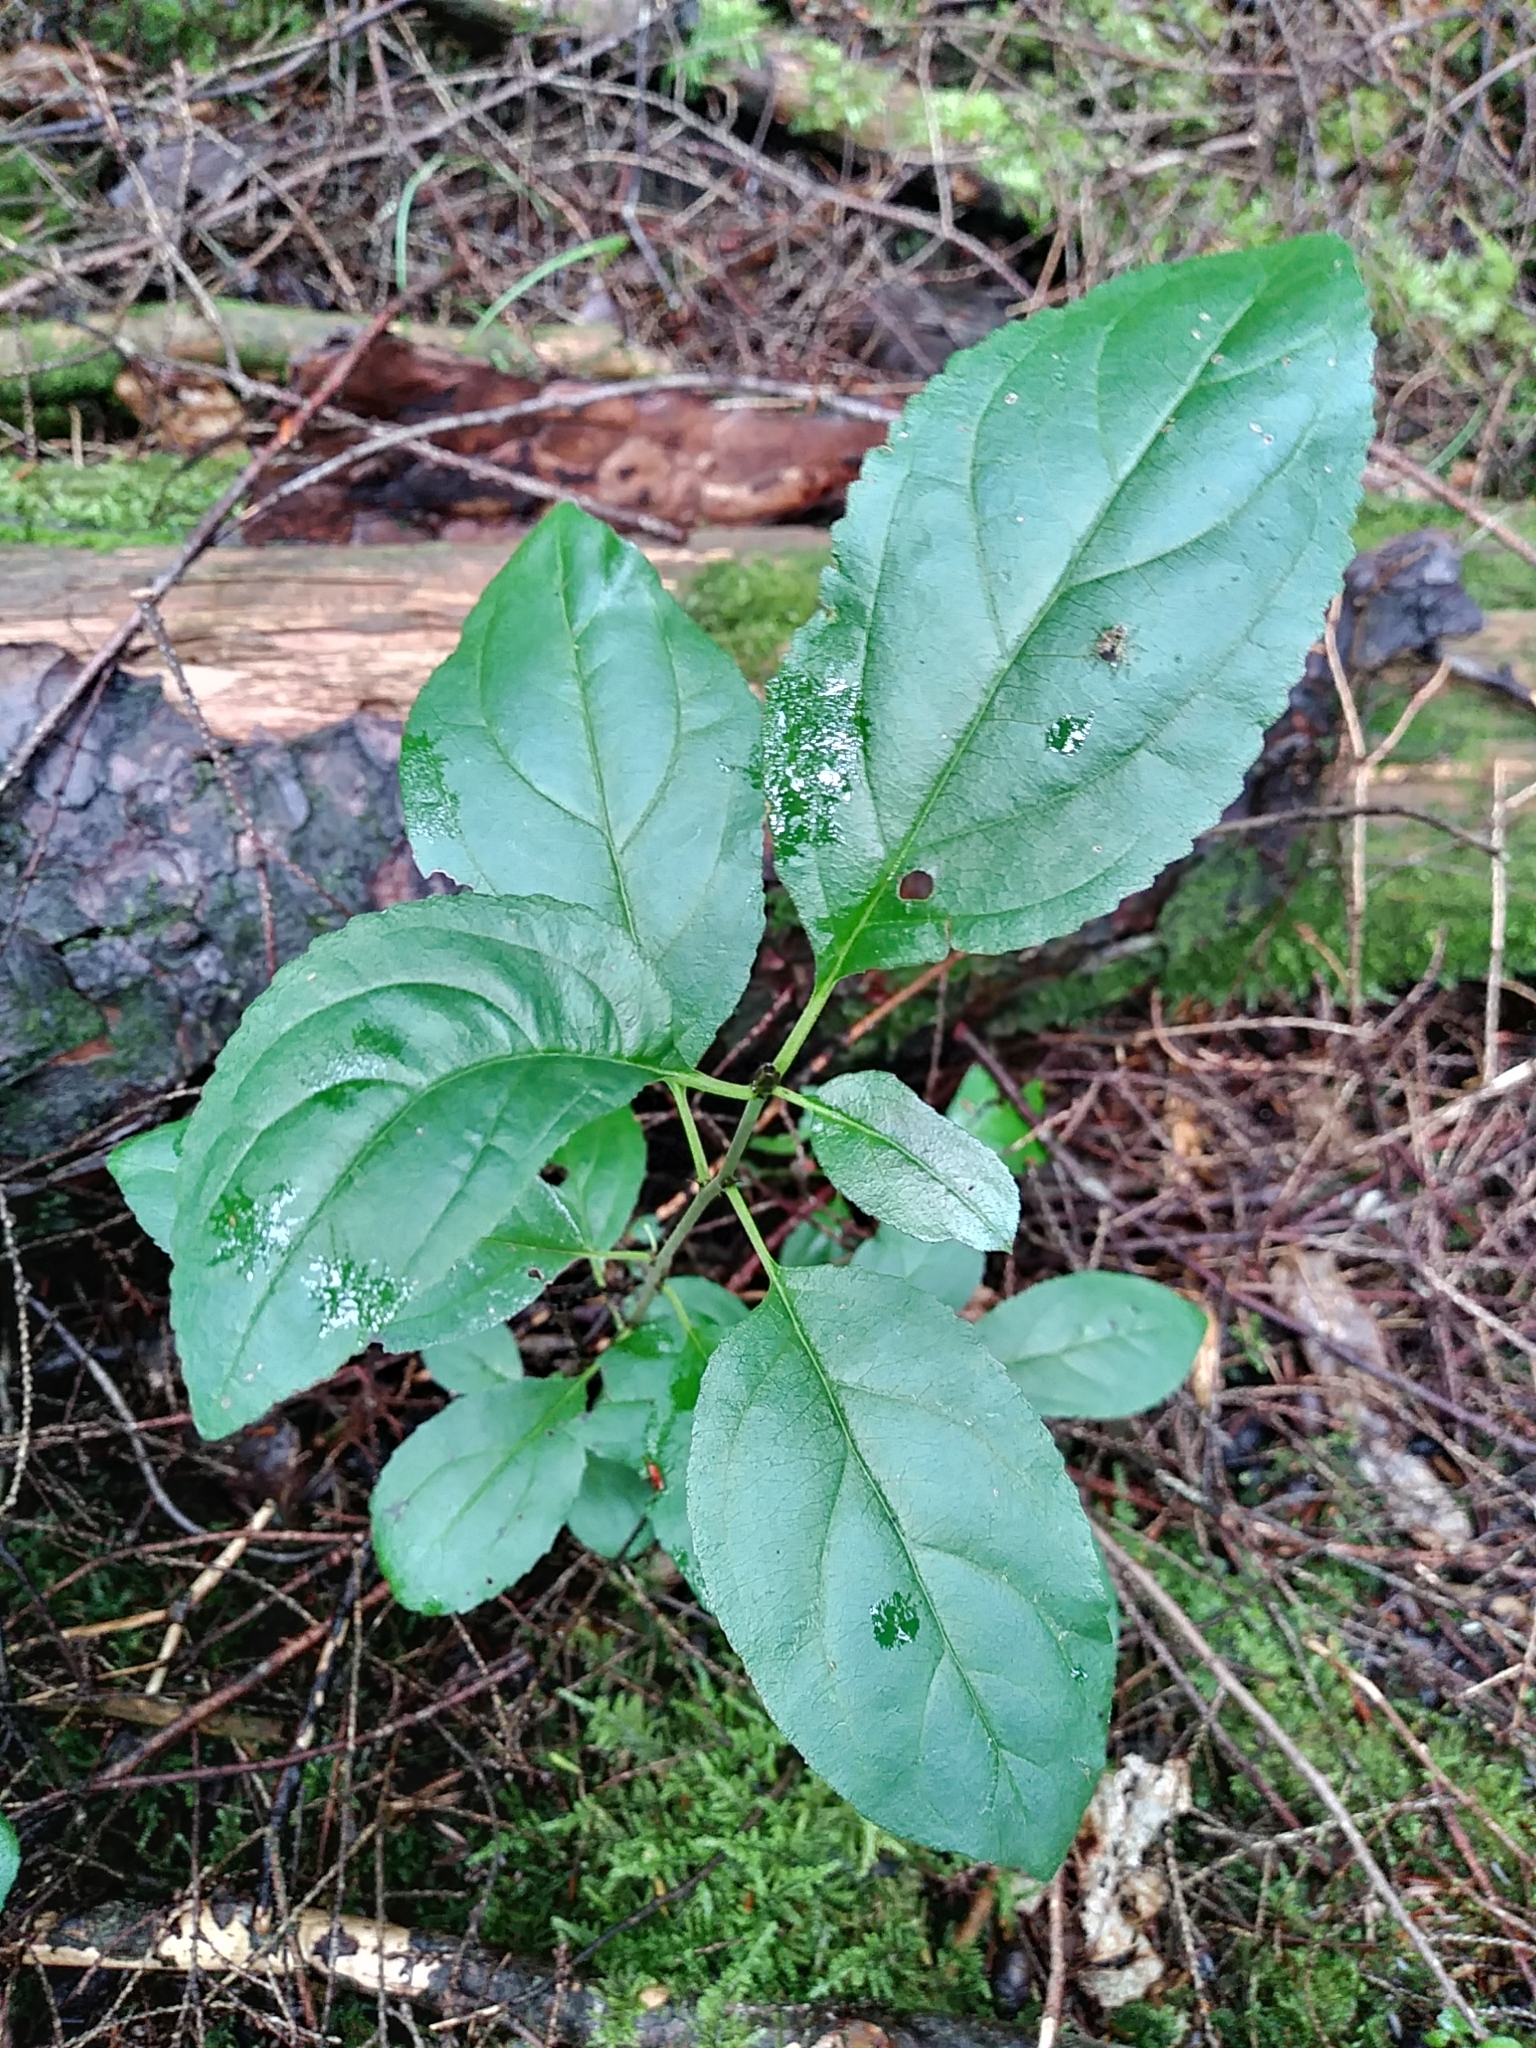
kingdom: Plantae
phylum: Tracheophyta
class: Magnoliopsida
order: Rosales
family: Rhamnaceae
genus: Rhamnus
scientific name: Rhamnus cathartica
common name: Common buckthorn
